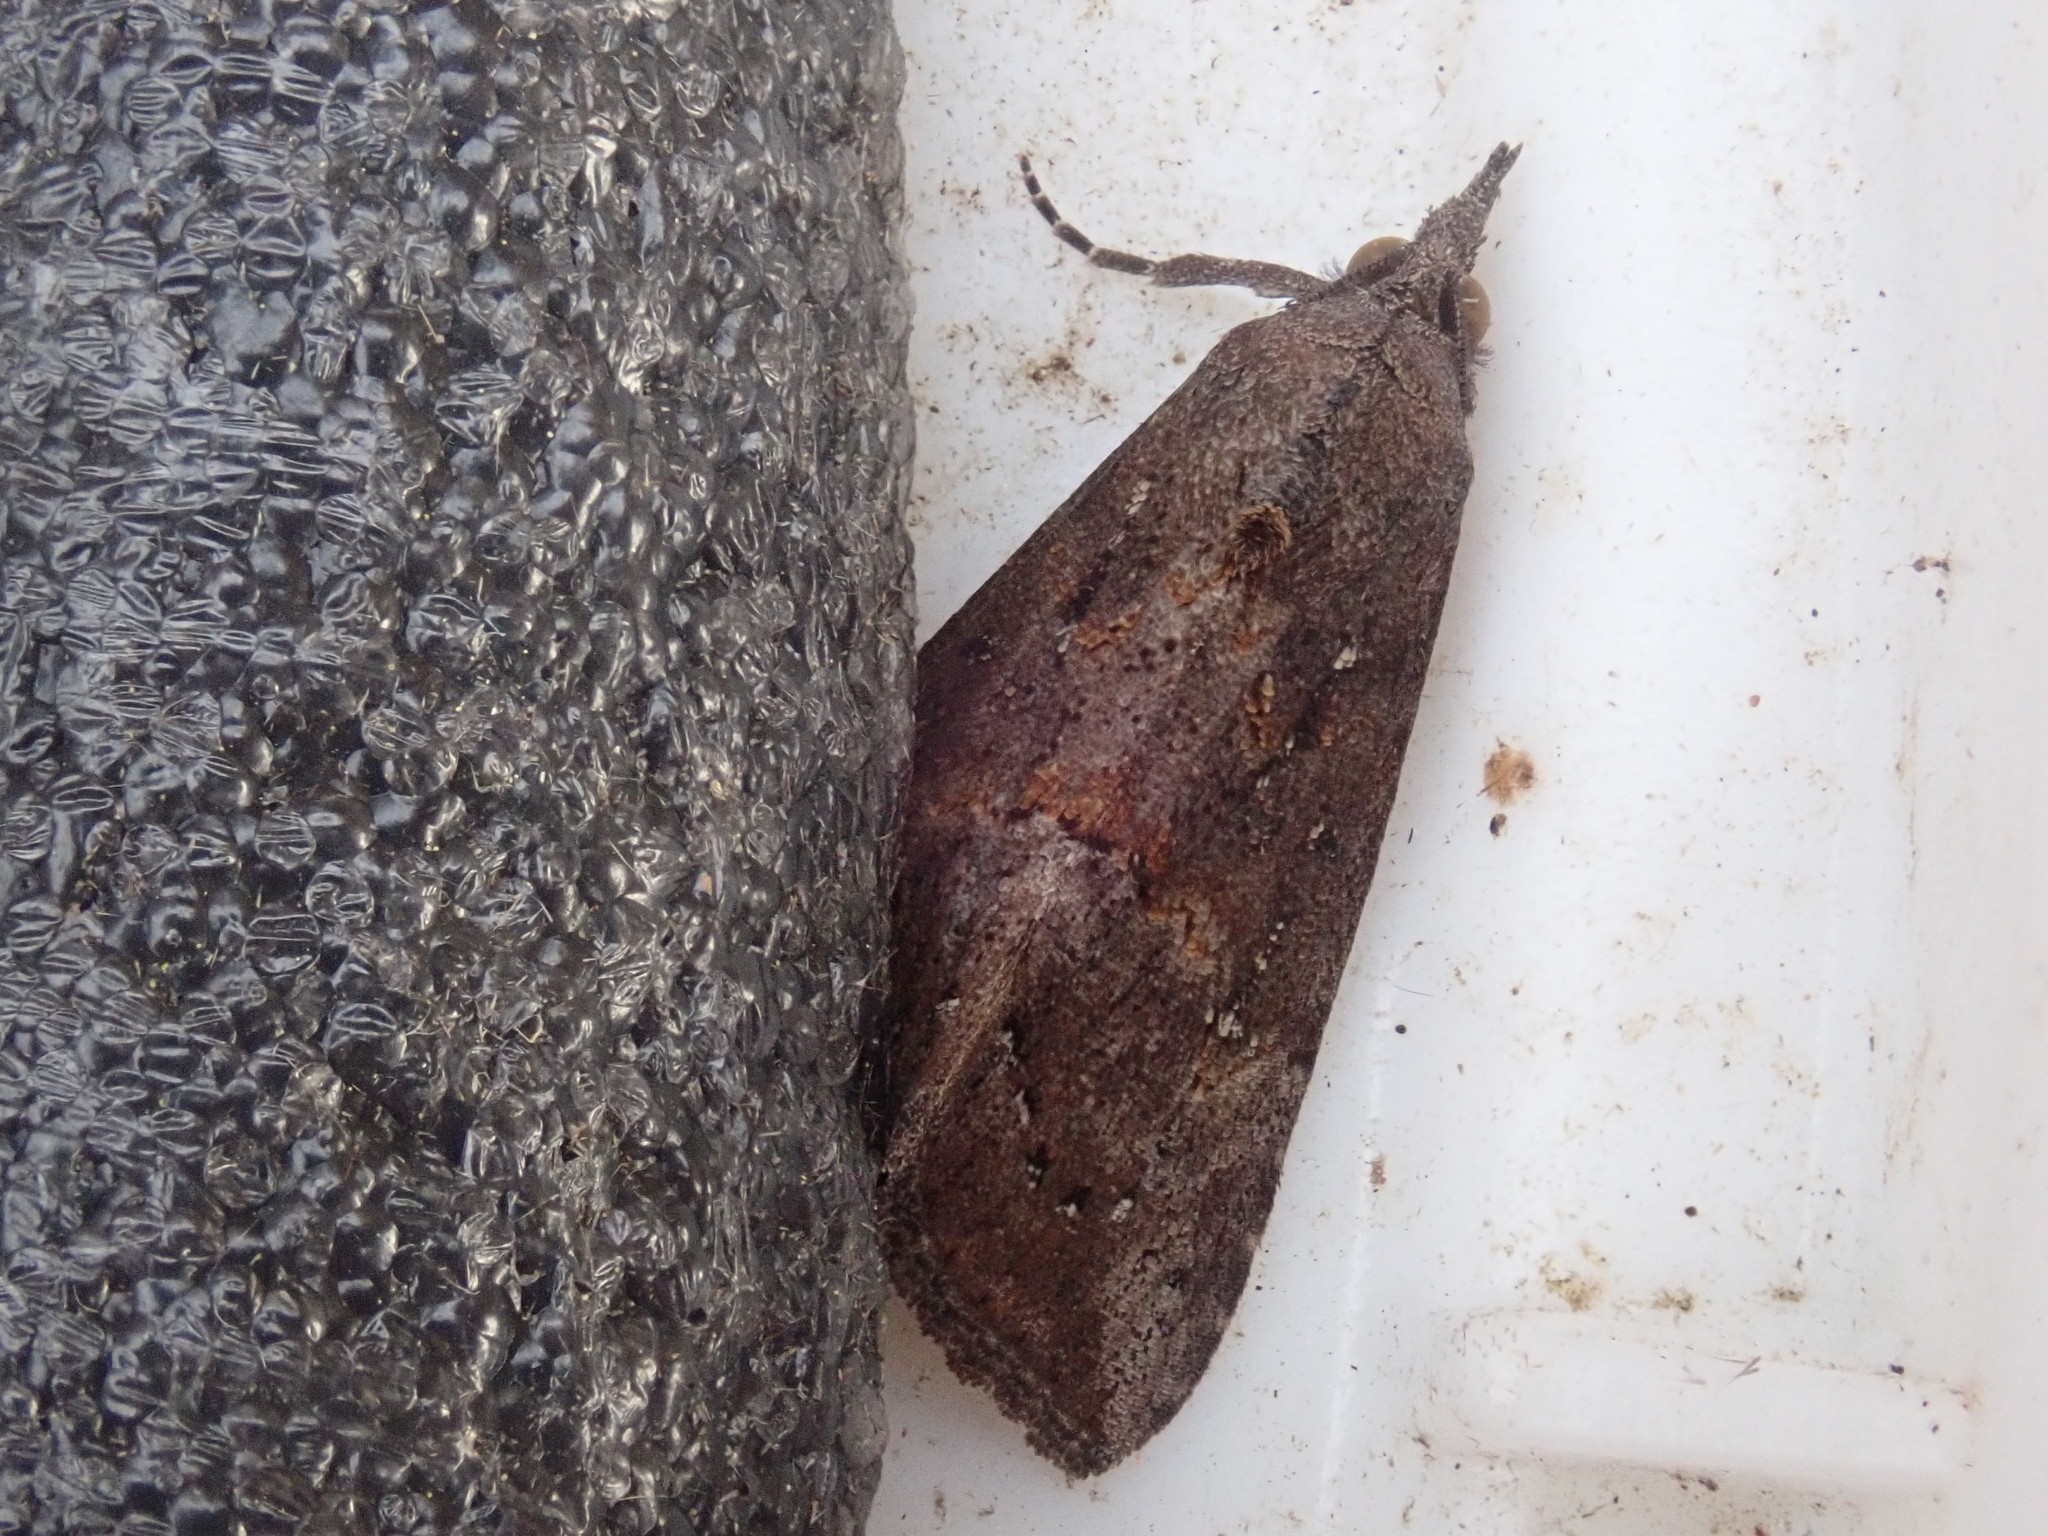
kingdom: Animalia
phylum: Arthropoda
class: Insecta
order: Lepidoptera
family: Erebidae
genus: Hypena
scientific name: Hypena scabra
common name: Green cloverworm
